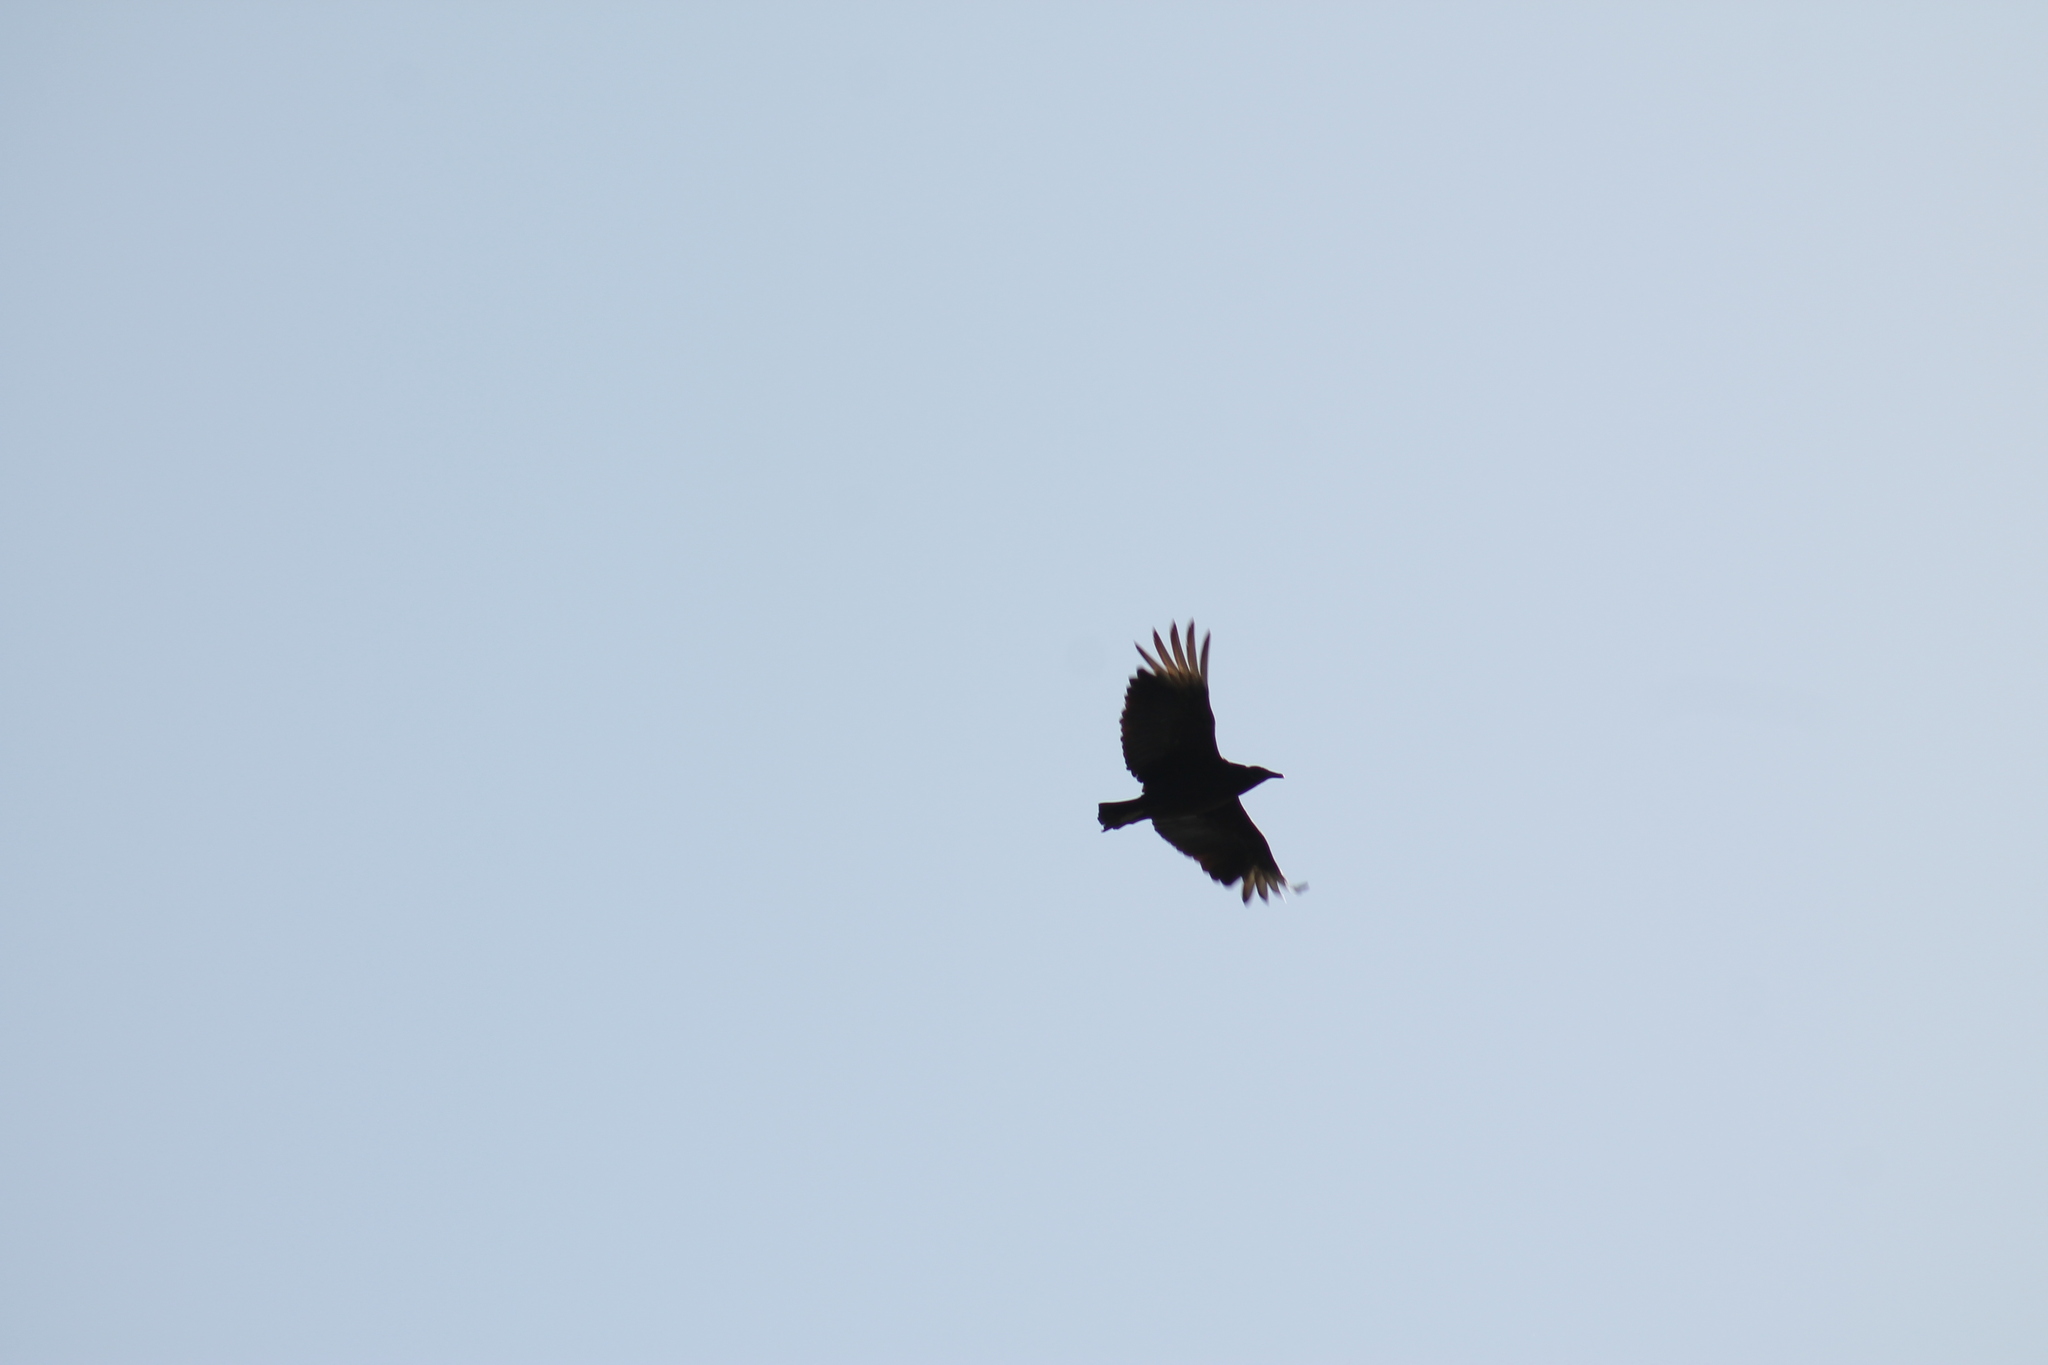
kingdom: Animalia
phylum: Chordata
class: Aves
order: Accipitriformes
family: Cathartidae
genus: Coragyps
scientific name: Coragyps atratus
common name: Black vulture
